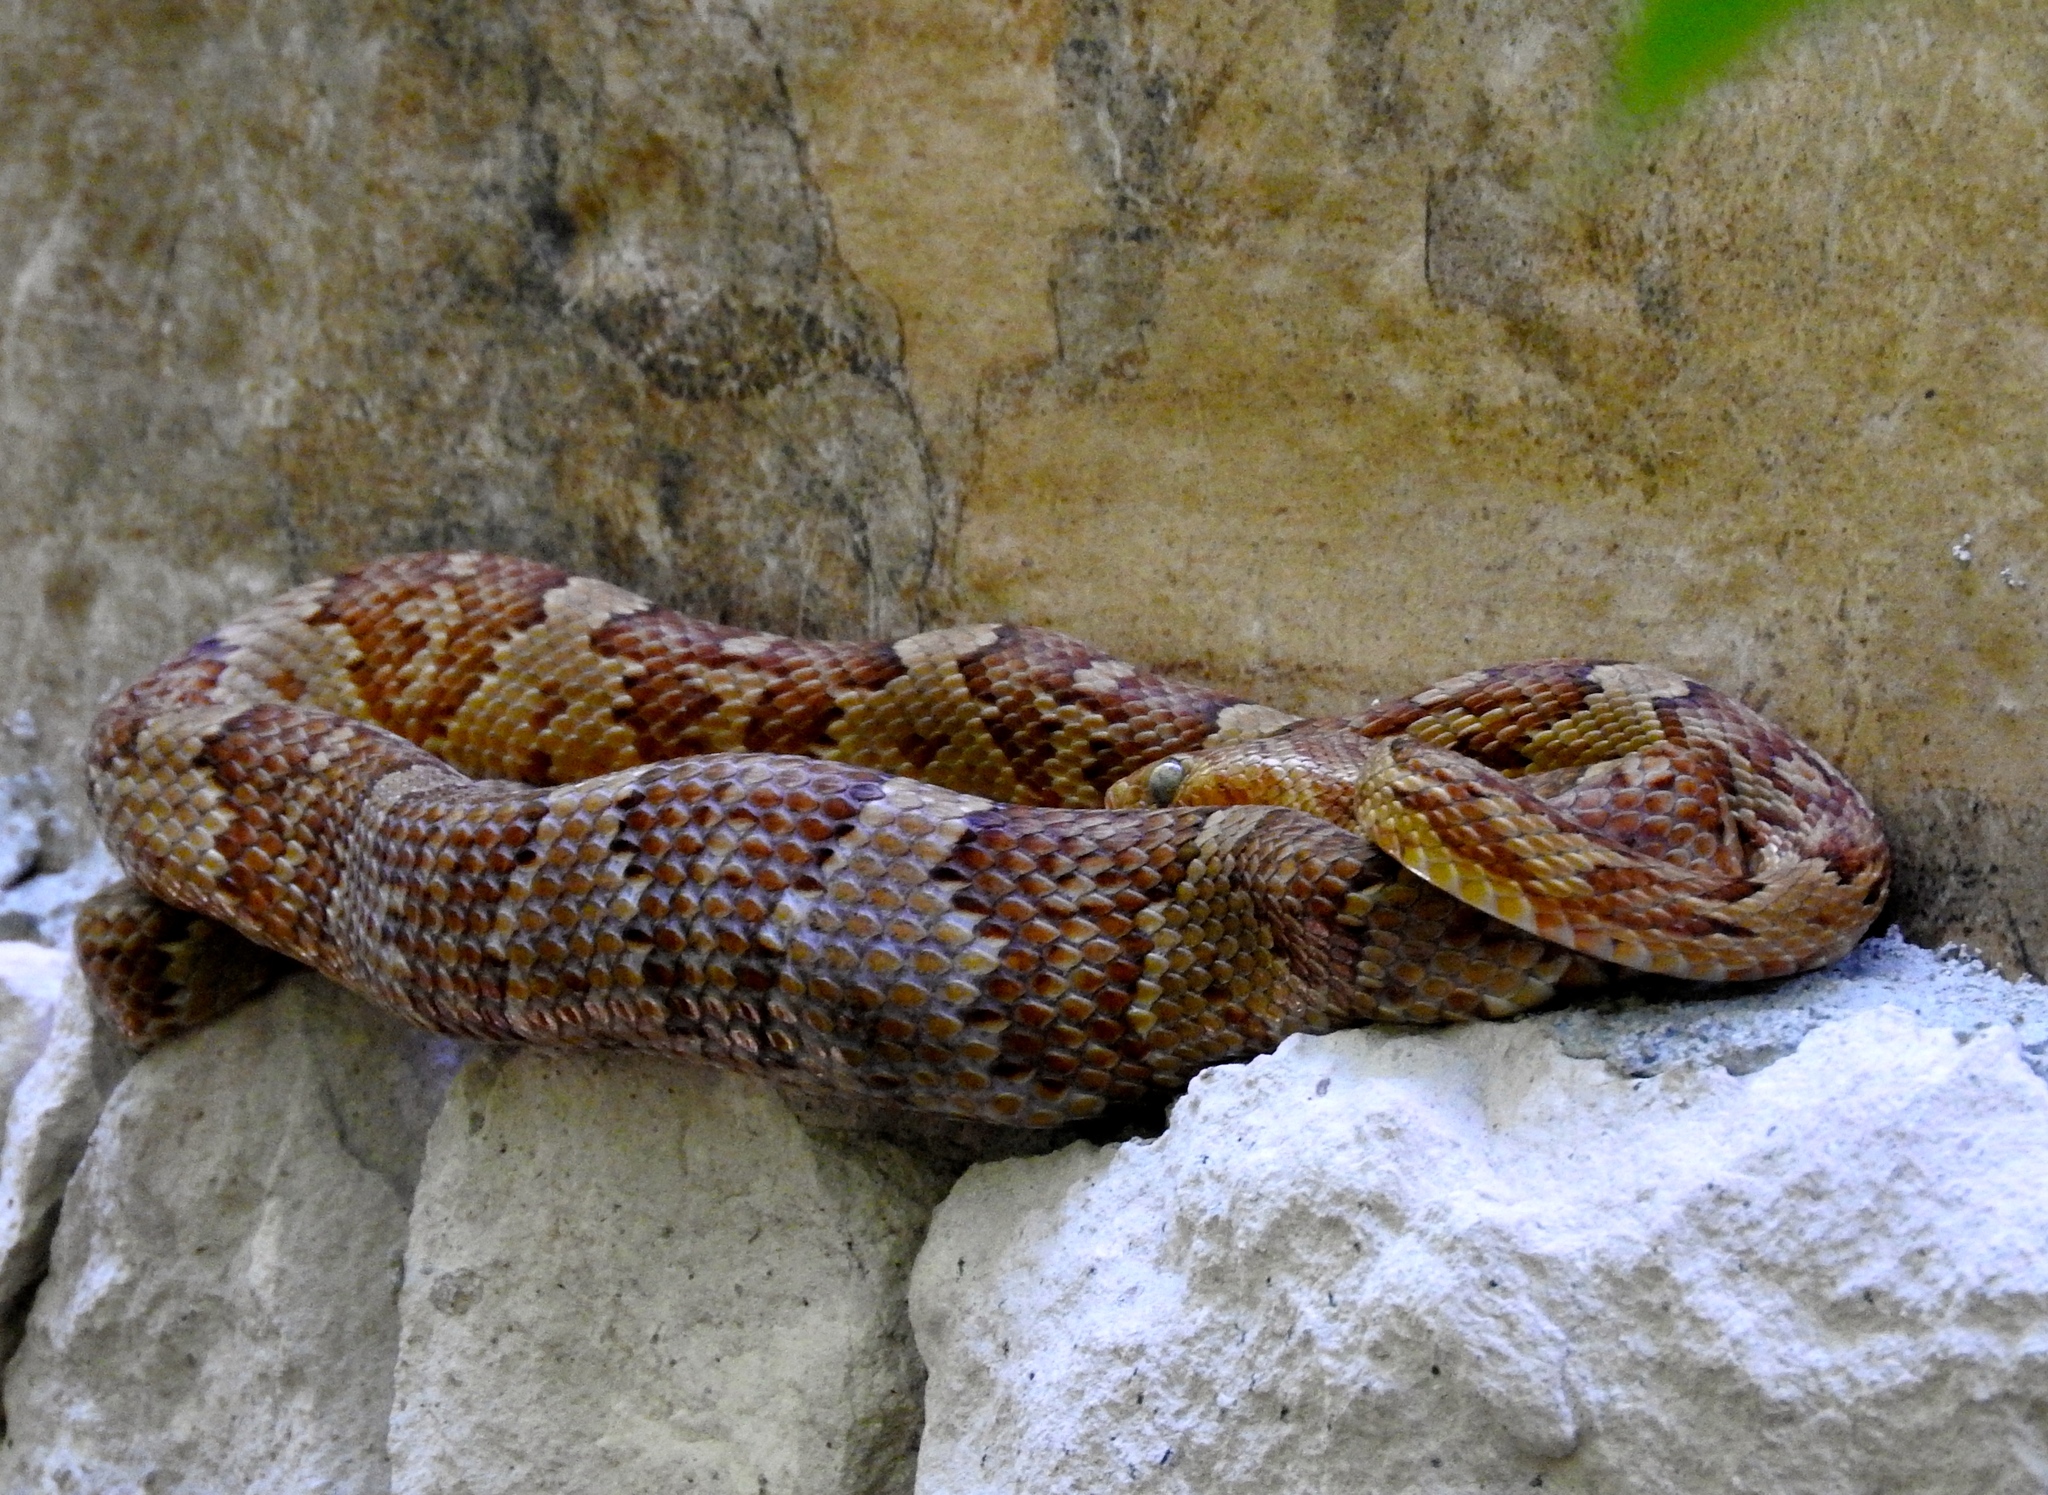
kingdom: Animalia
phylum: Chordata
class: Squamata
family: Colubridae
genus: Trimorphodon
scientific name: Trimorphodon paucimaculatus
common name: Sinaloan lyresnake
